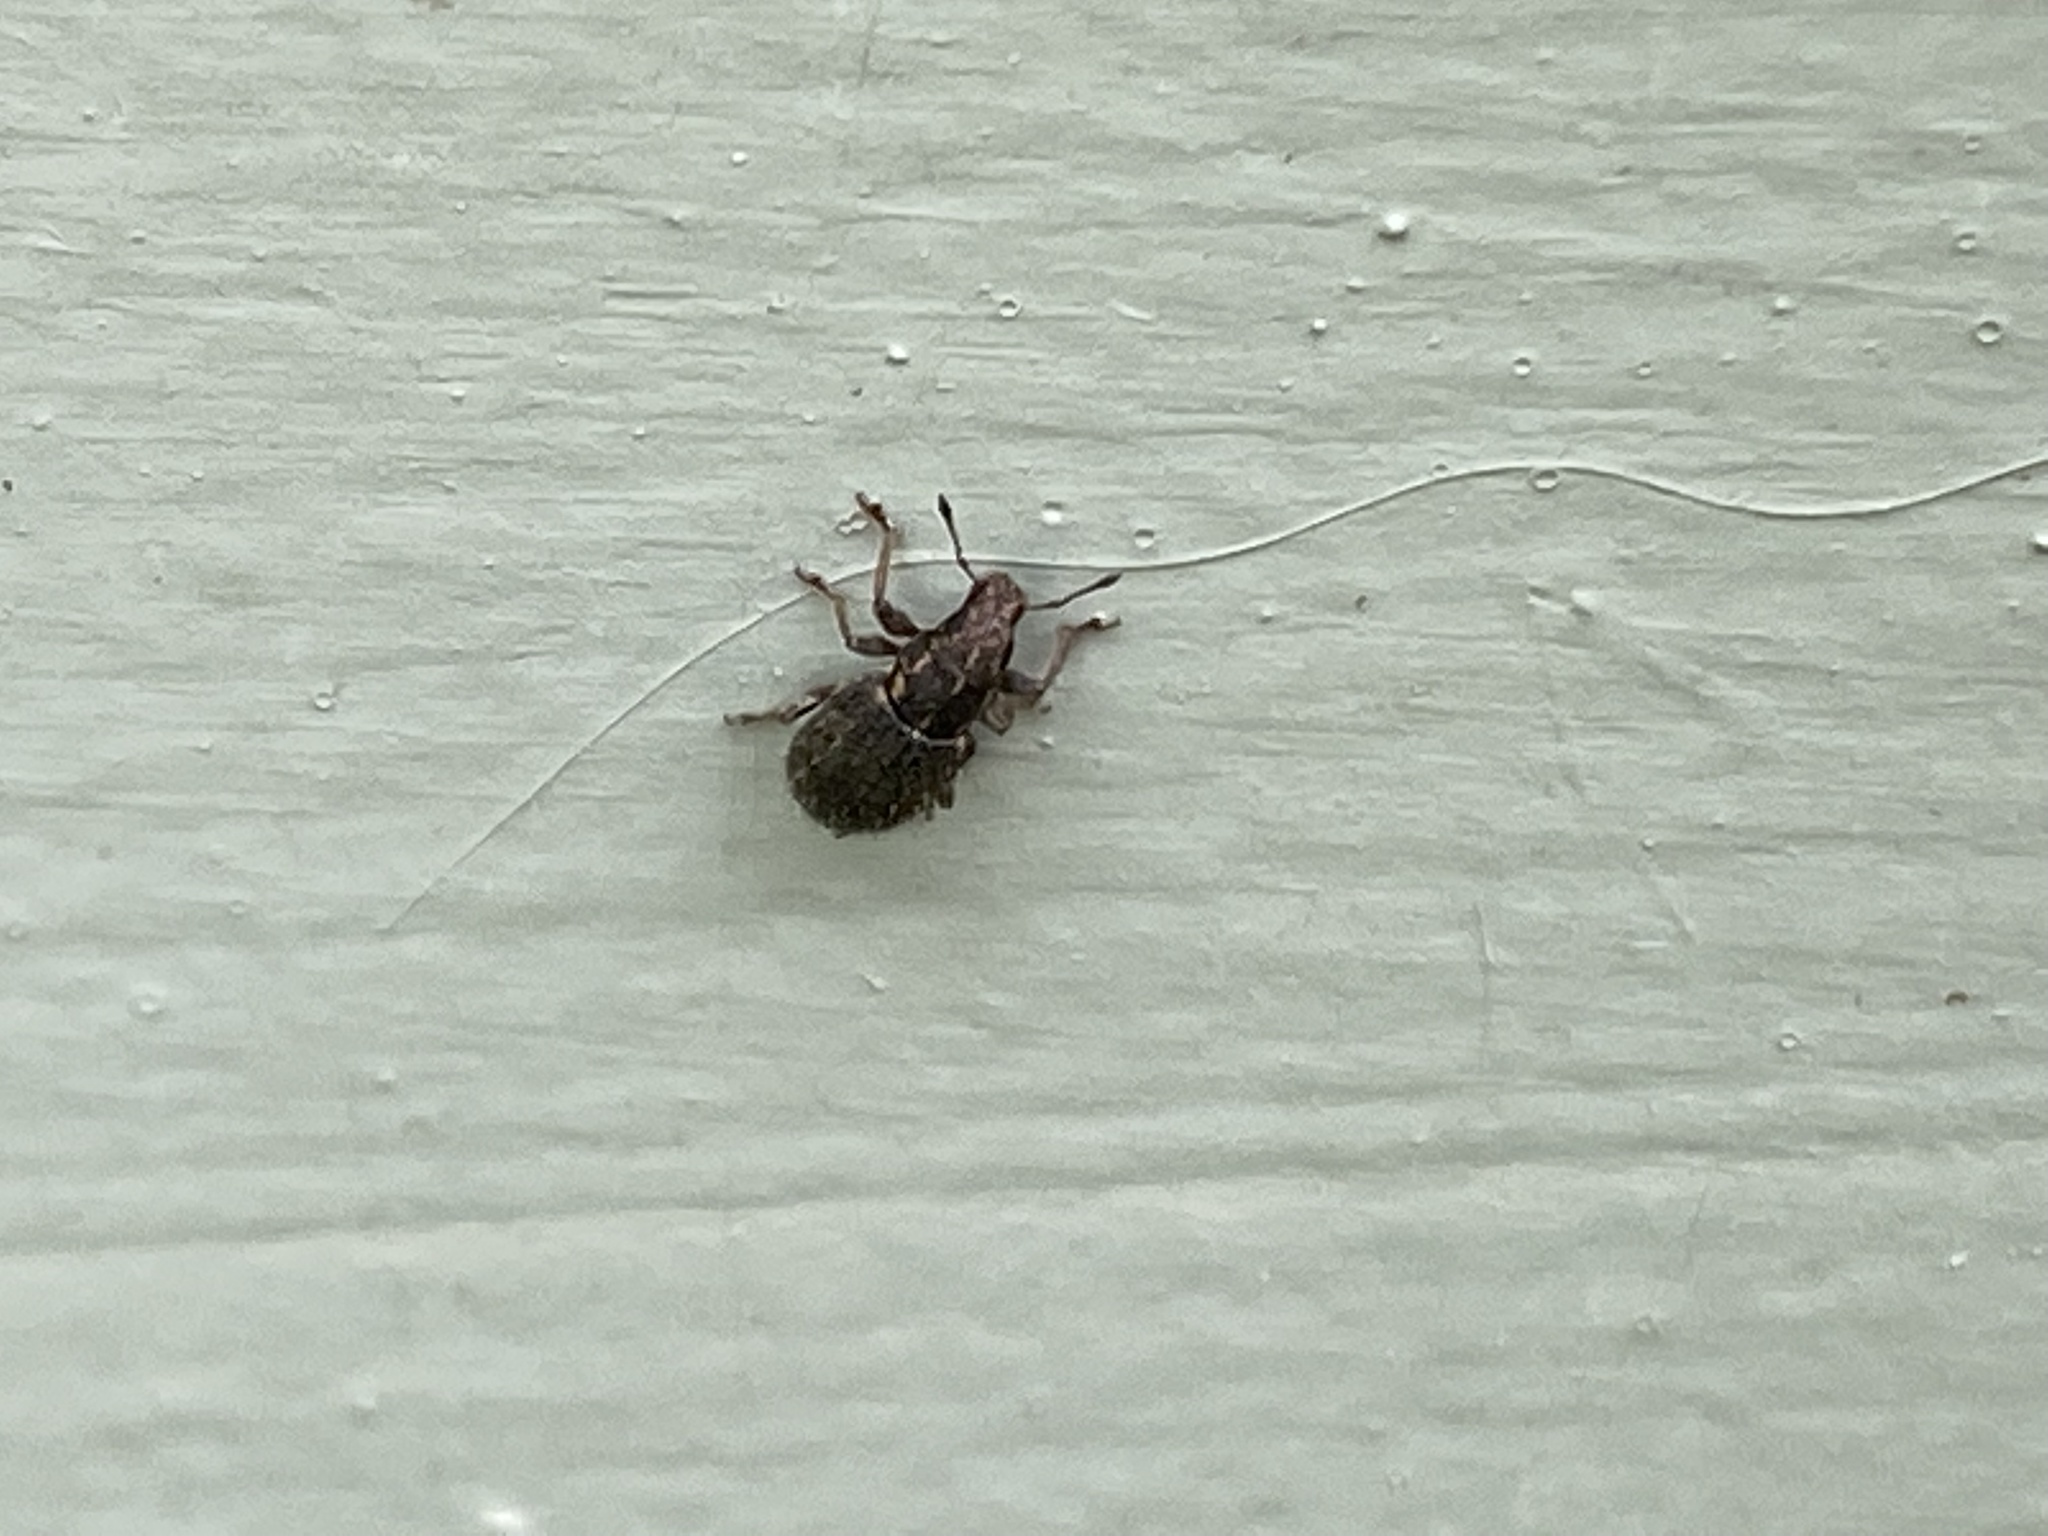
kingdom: Animalia
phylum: Arthropoda
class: Insecta
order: Coleoptera
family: Curculionidae
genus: Sitona
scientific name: Sitona hispidulus
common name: Clover weevil
